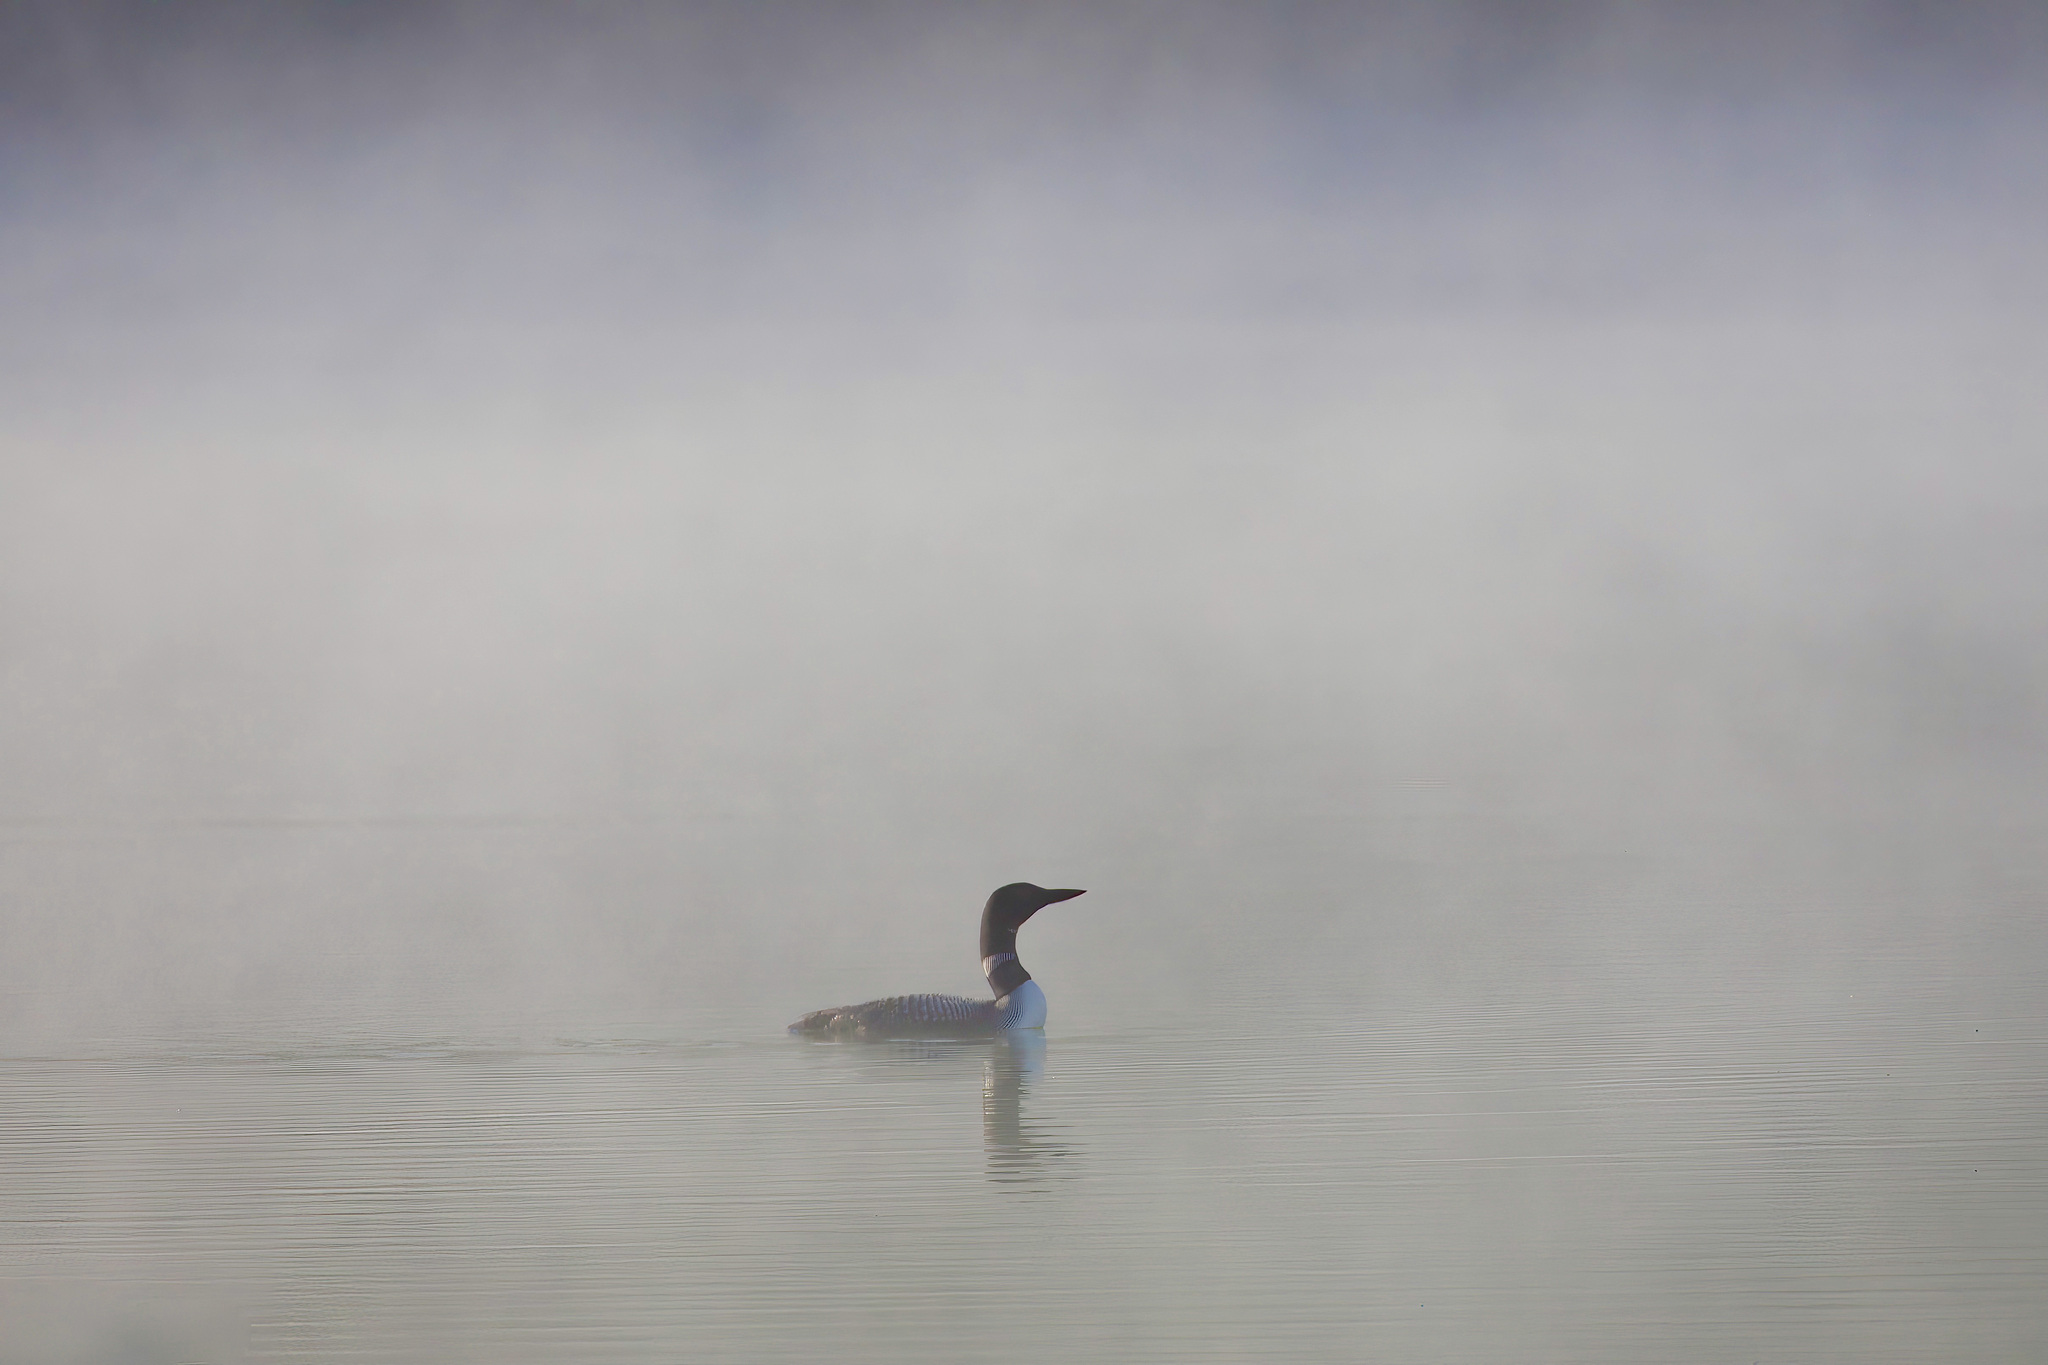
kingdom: Animalia
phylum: Chordata
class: Aves
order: Gaviiformes
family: Gaviidae
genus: Gavia
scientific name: Gavia immer
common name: Common loon
